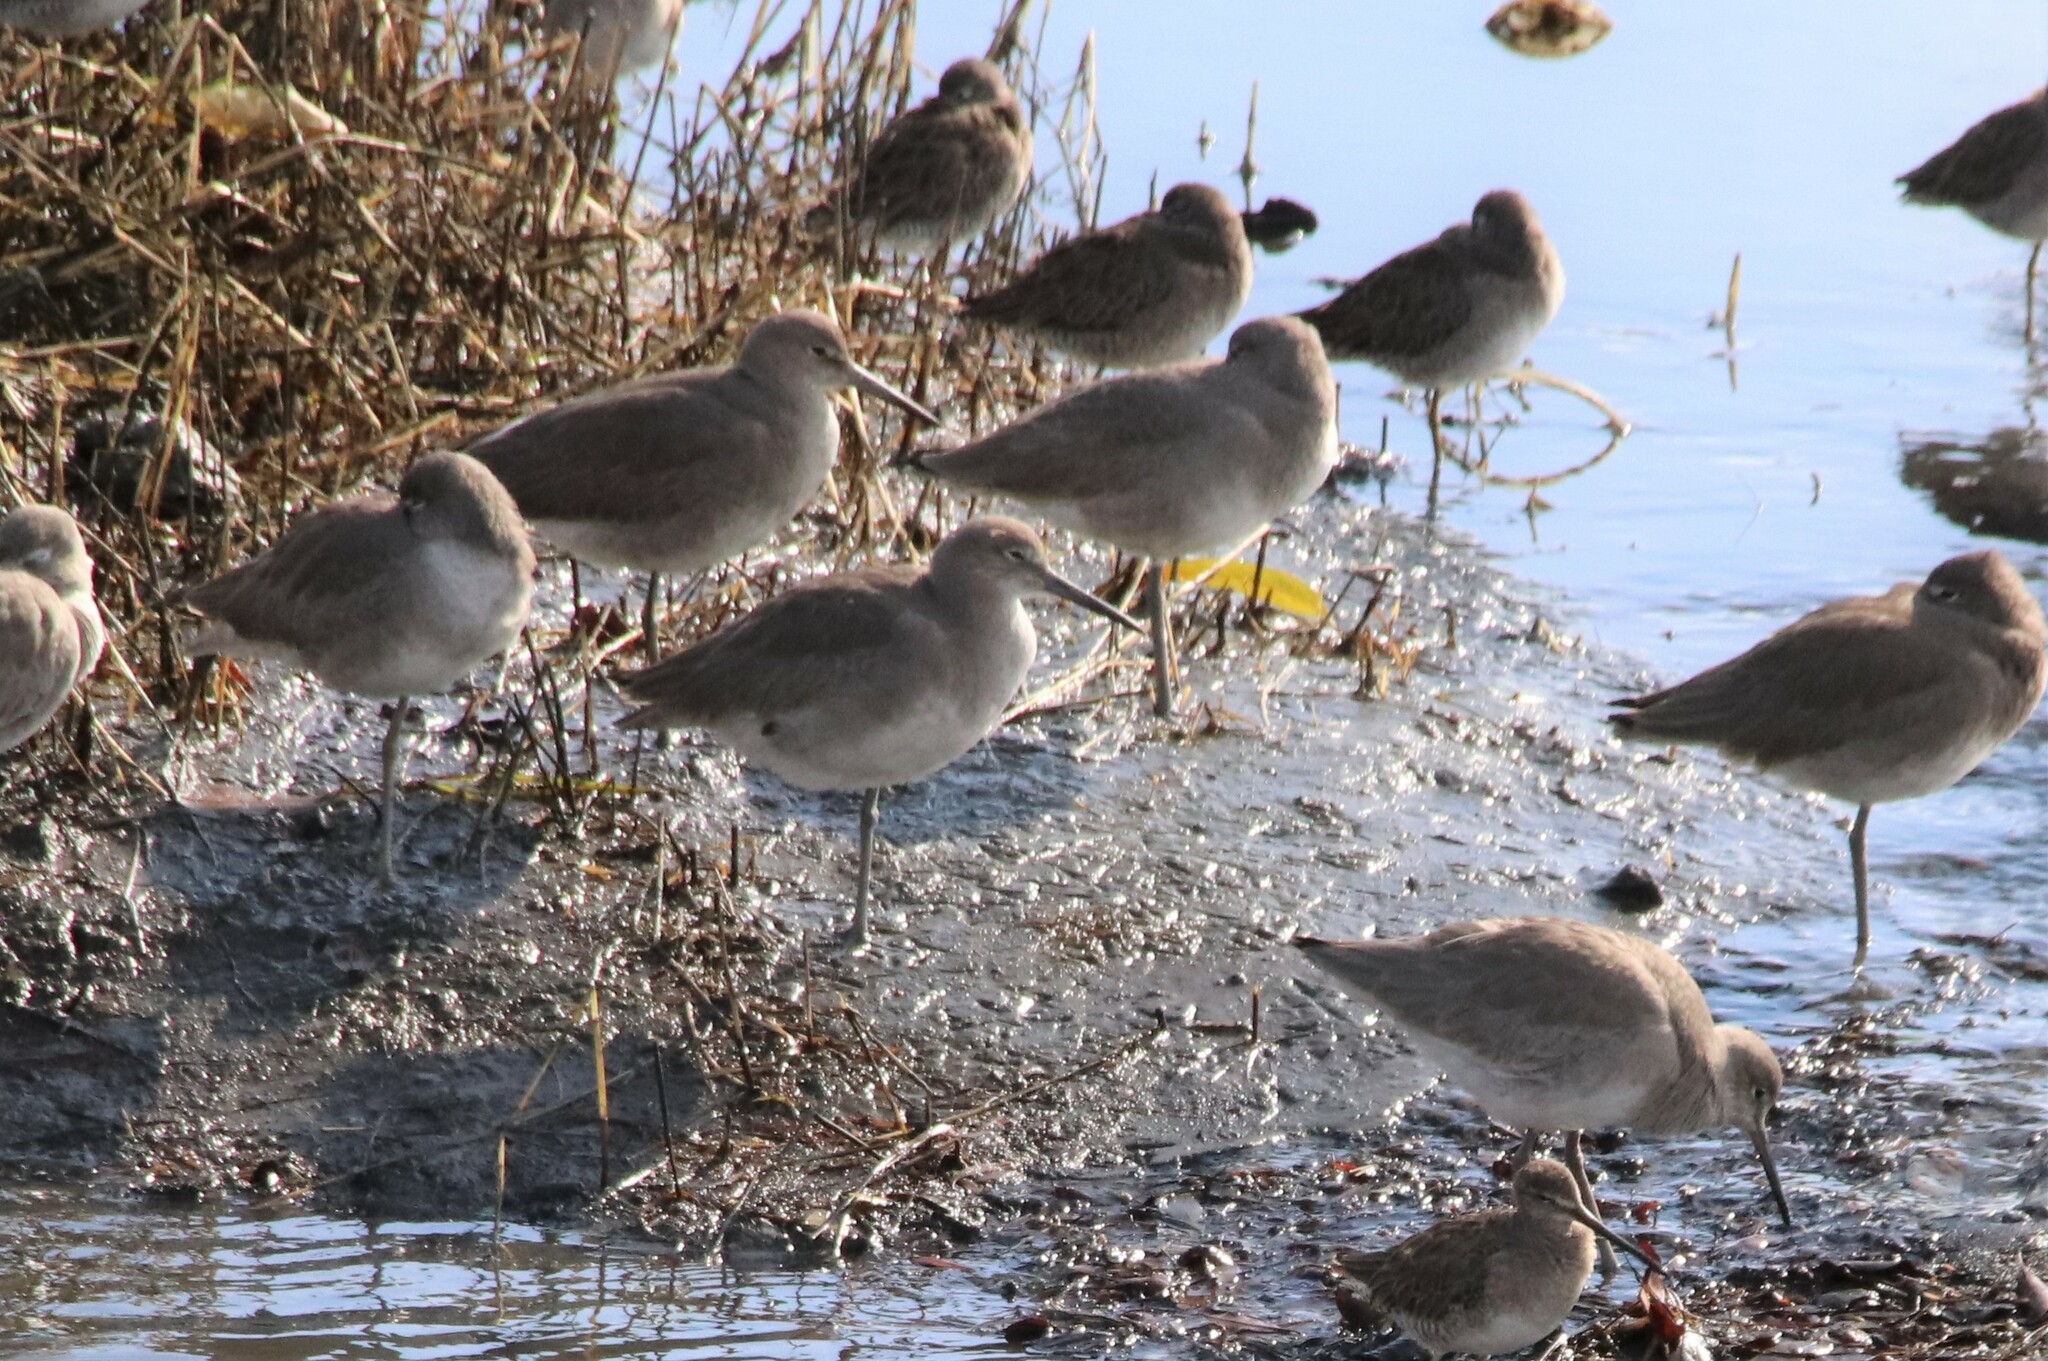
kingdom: Animalia
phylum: Chordata
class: Aves
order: Charadriiformes
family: Scolopacidae
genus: Tringa
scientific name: Tringa semipalmata
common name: Willet
